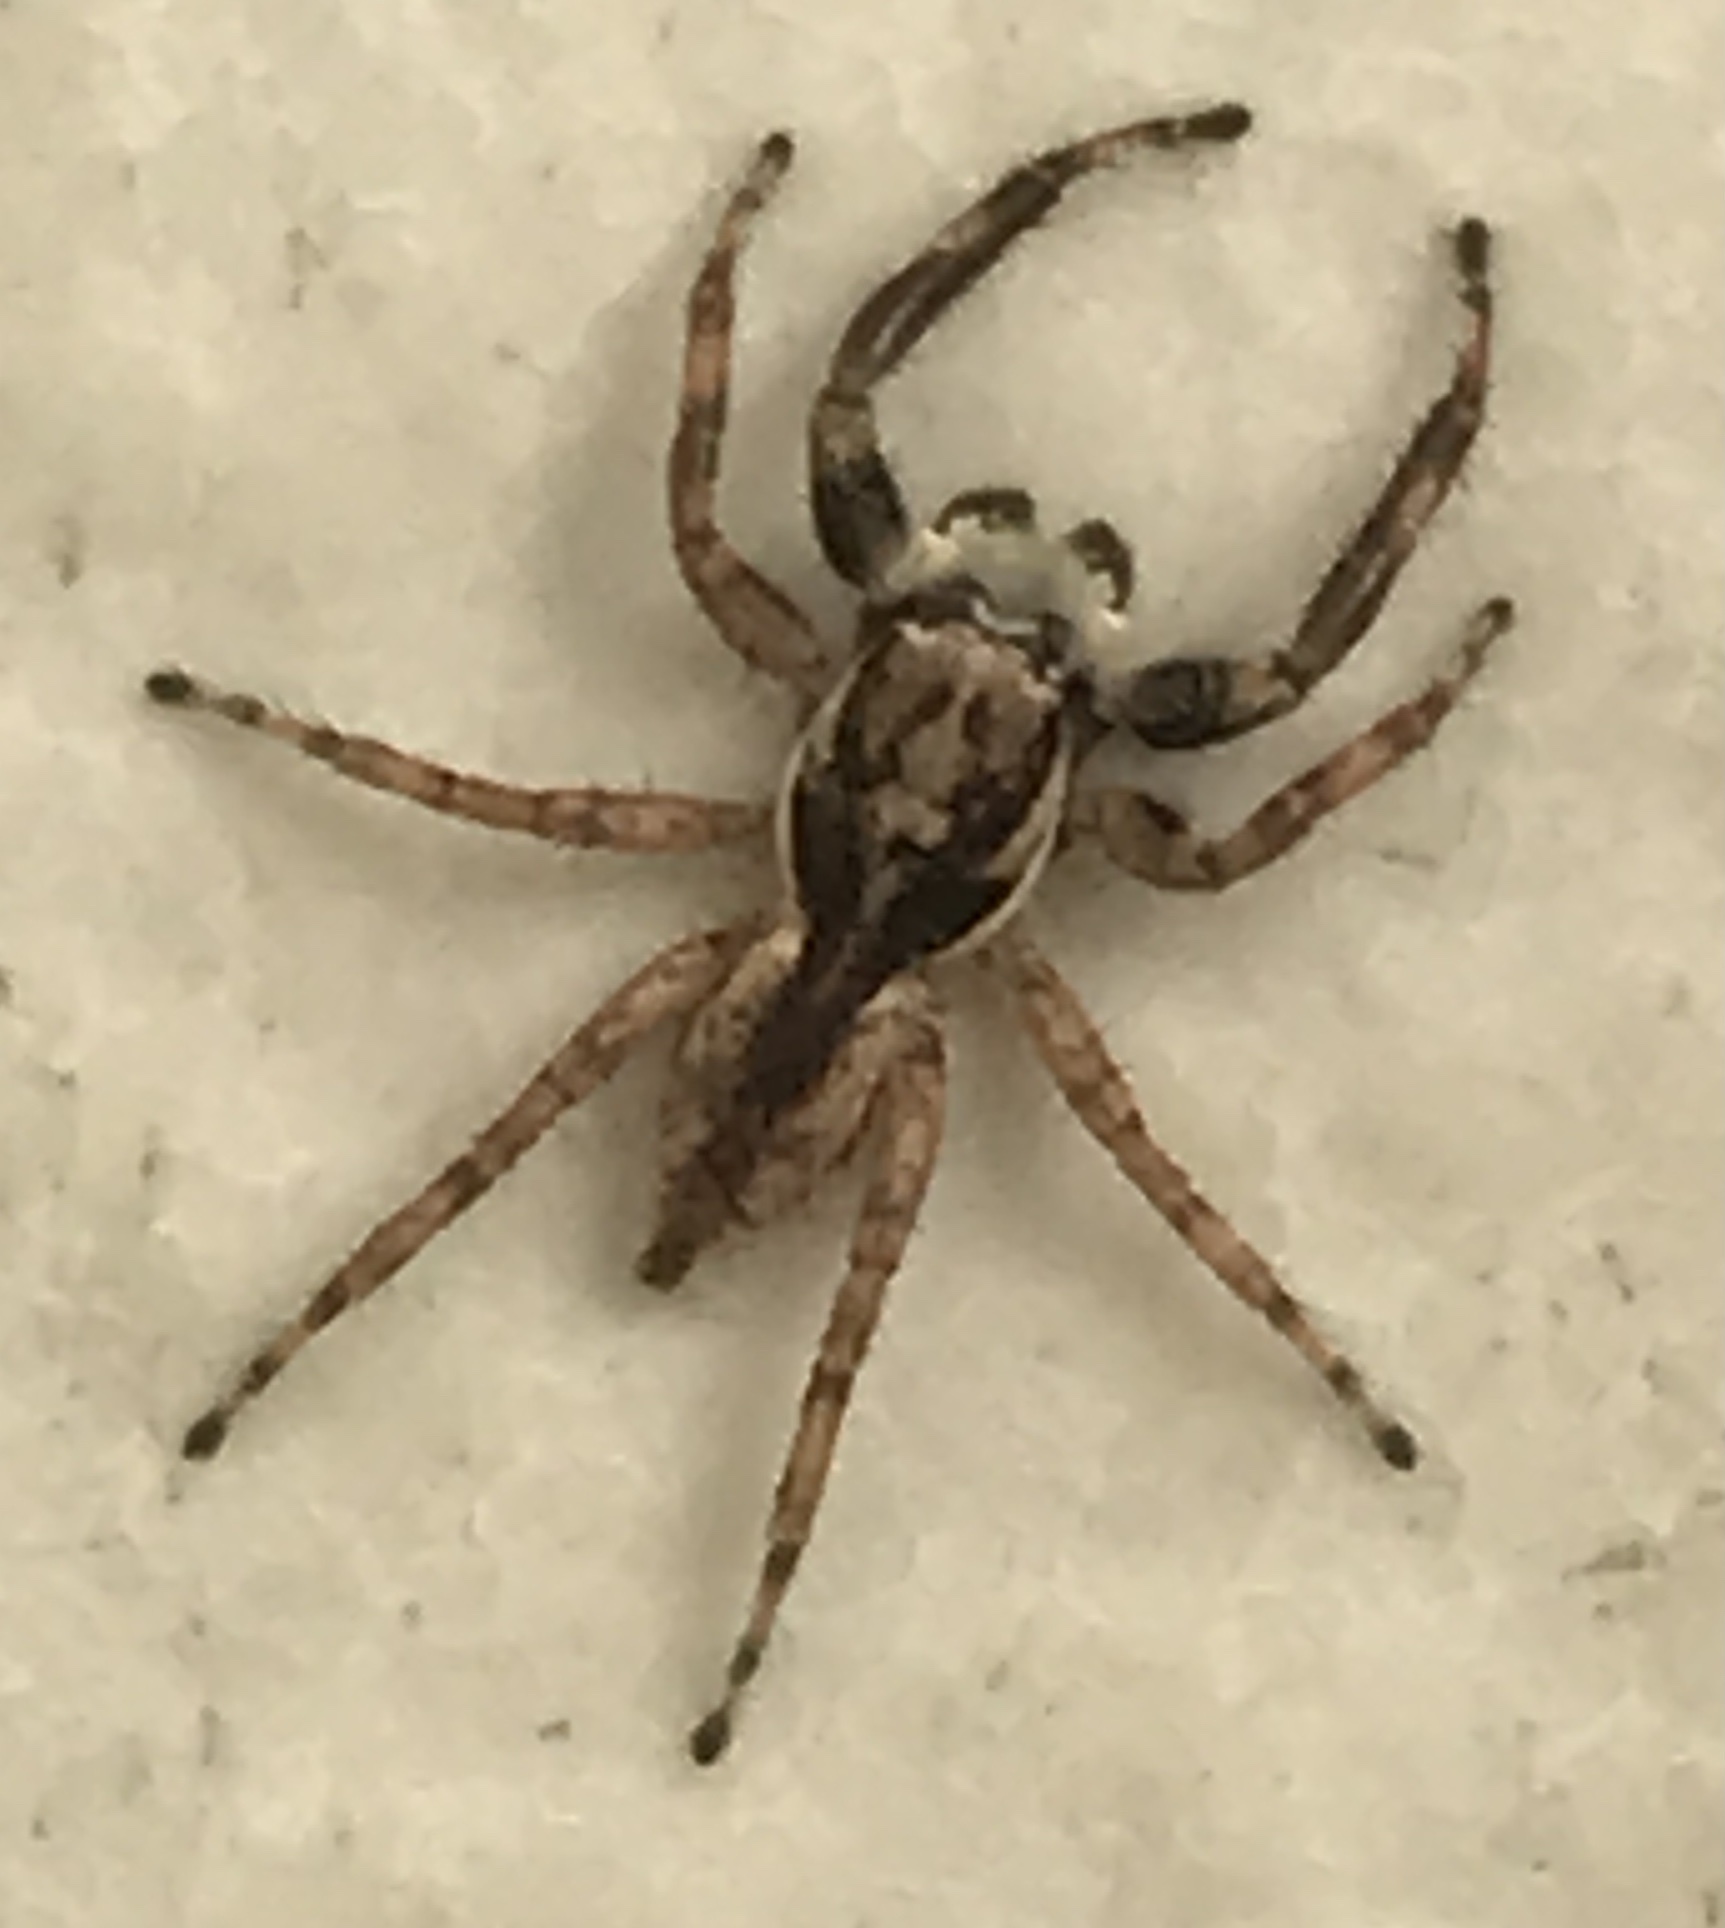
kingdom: Animalia
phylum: Arthropoda
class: Arachnida
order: Araneae
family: Salticidae
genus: Menemerus
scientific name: Menemerus bivittatus
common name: Gray wall jumper
